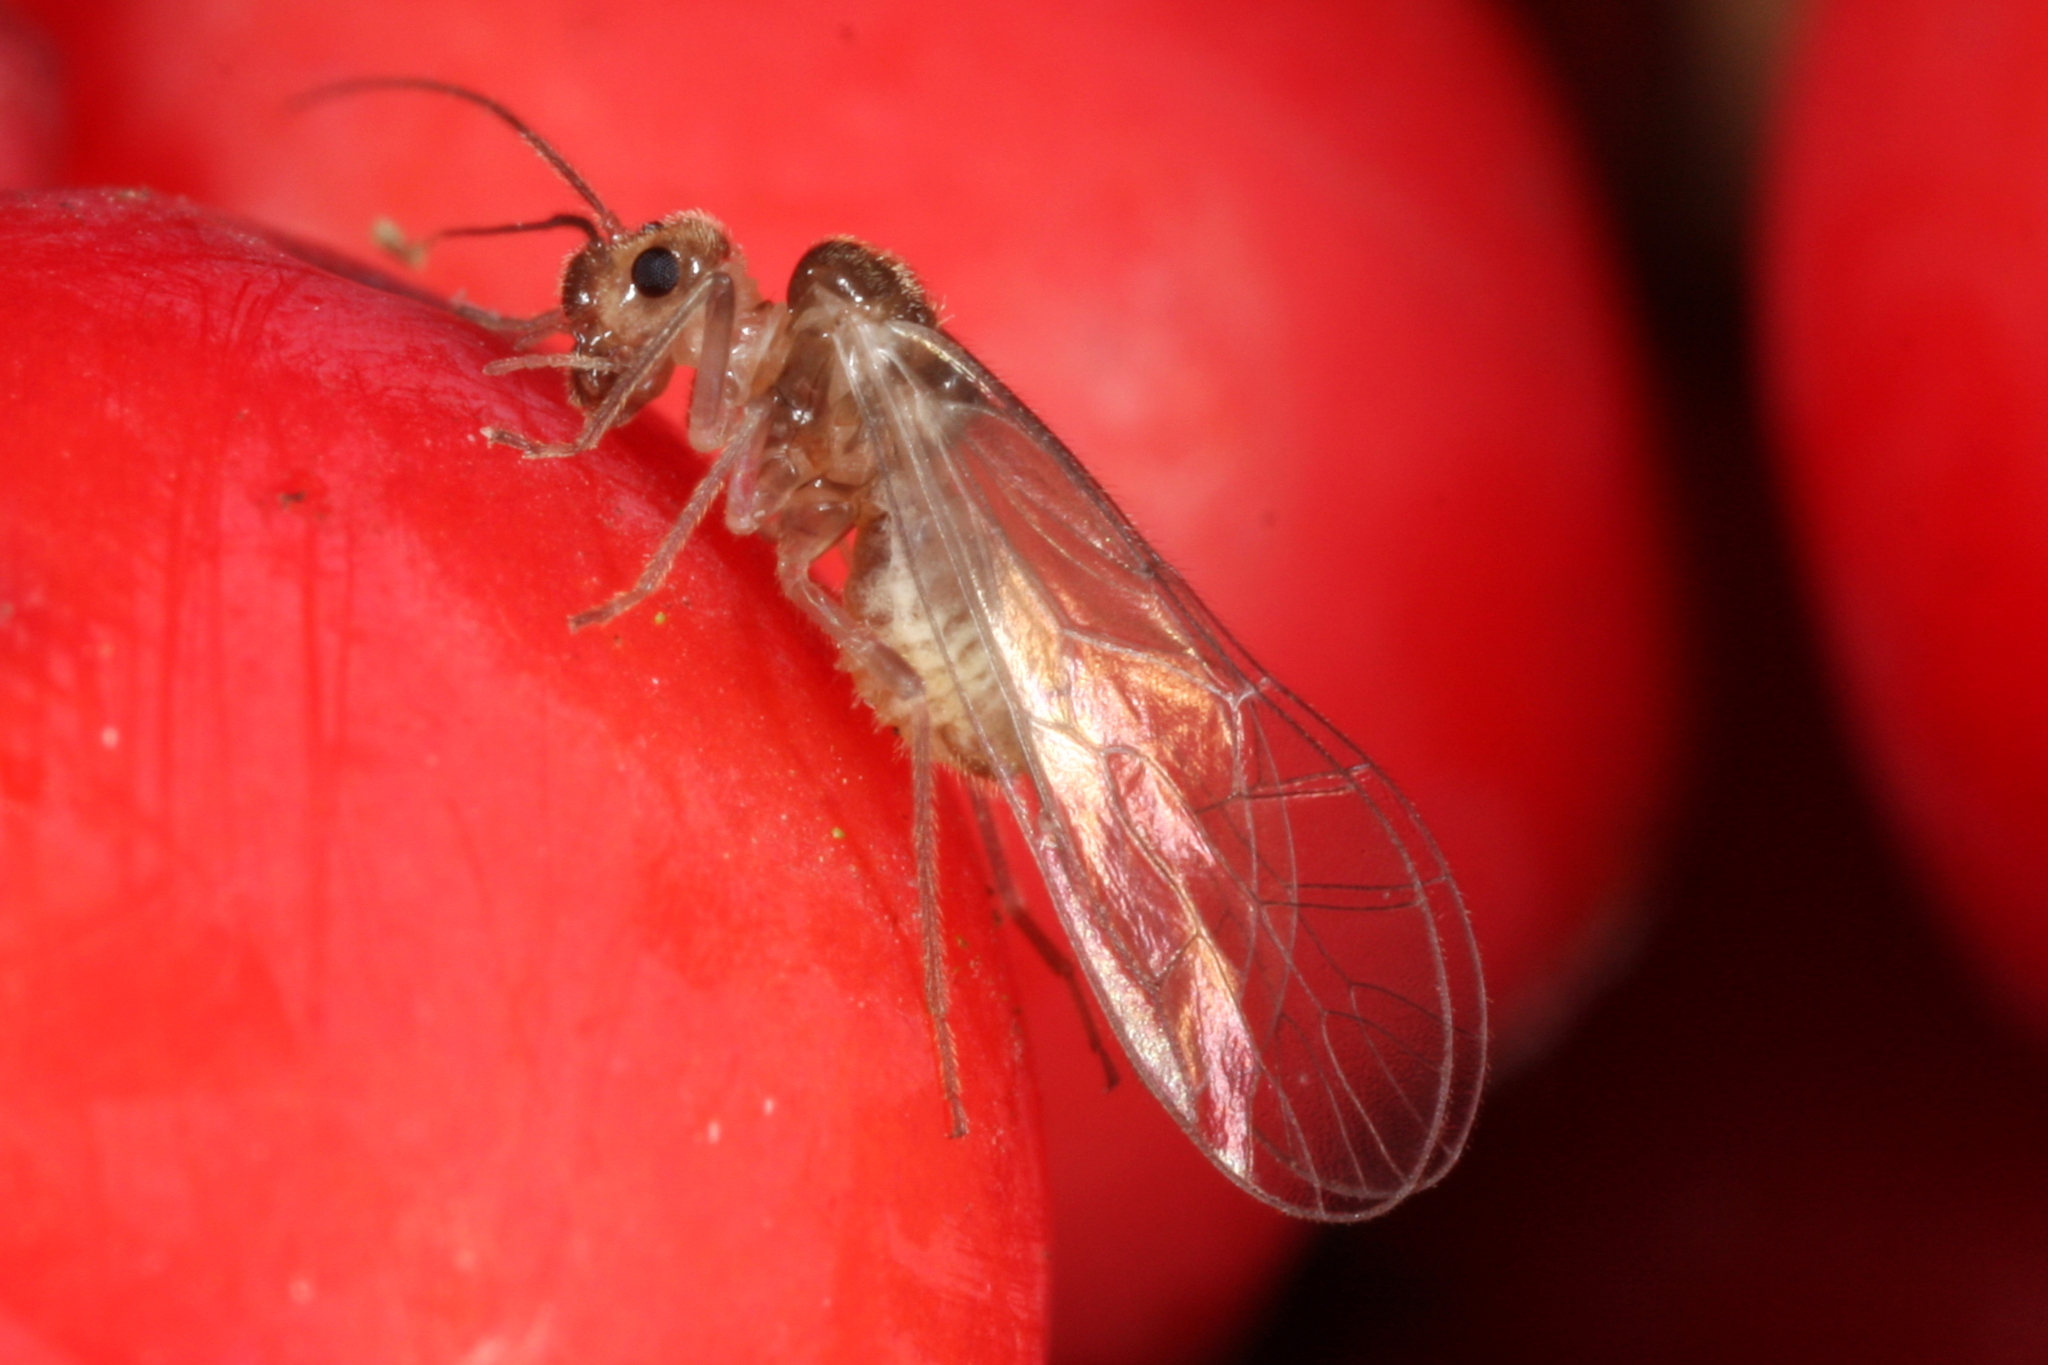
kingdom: Animalia
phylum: Arthropoda
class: Insecta
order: Psocodea
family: Stenopsocidae
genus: Stenopsocus
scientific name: Stenopsocus immaculatus
